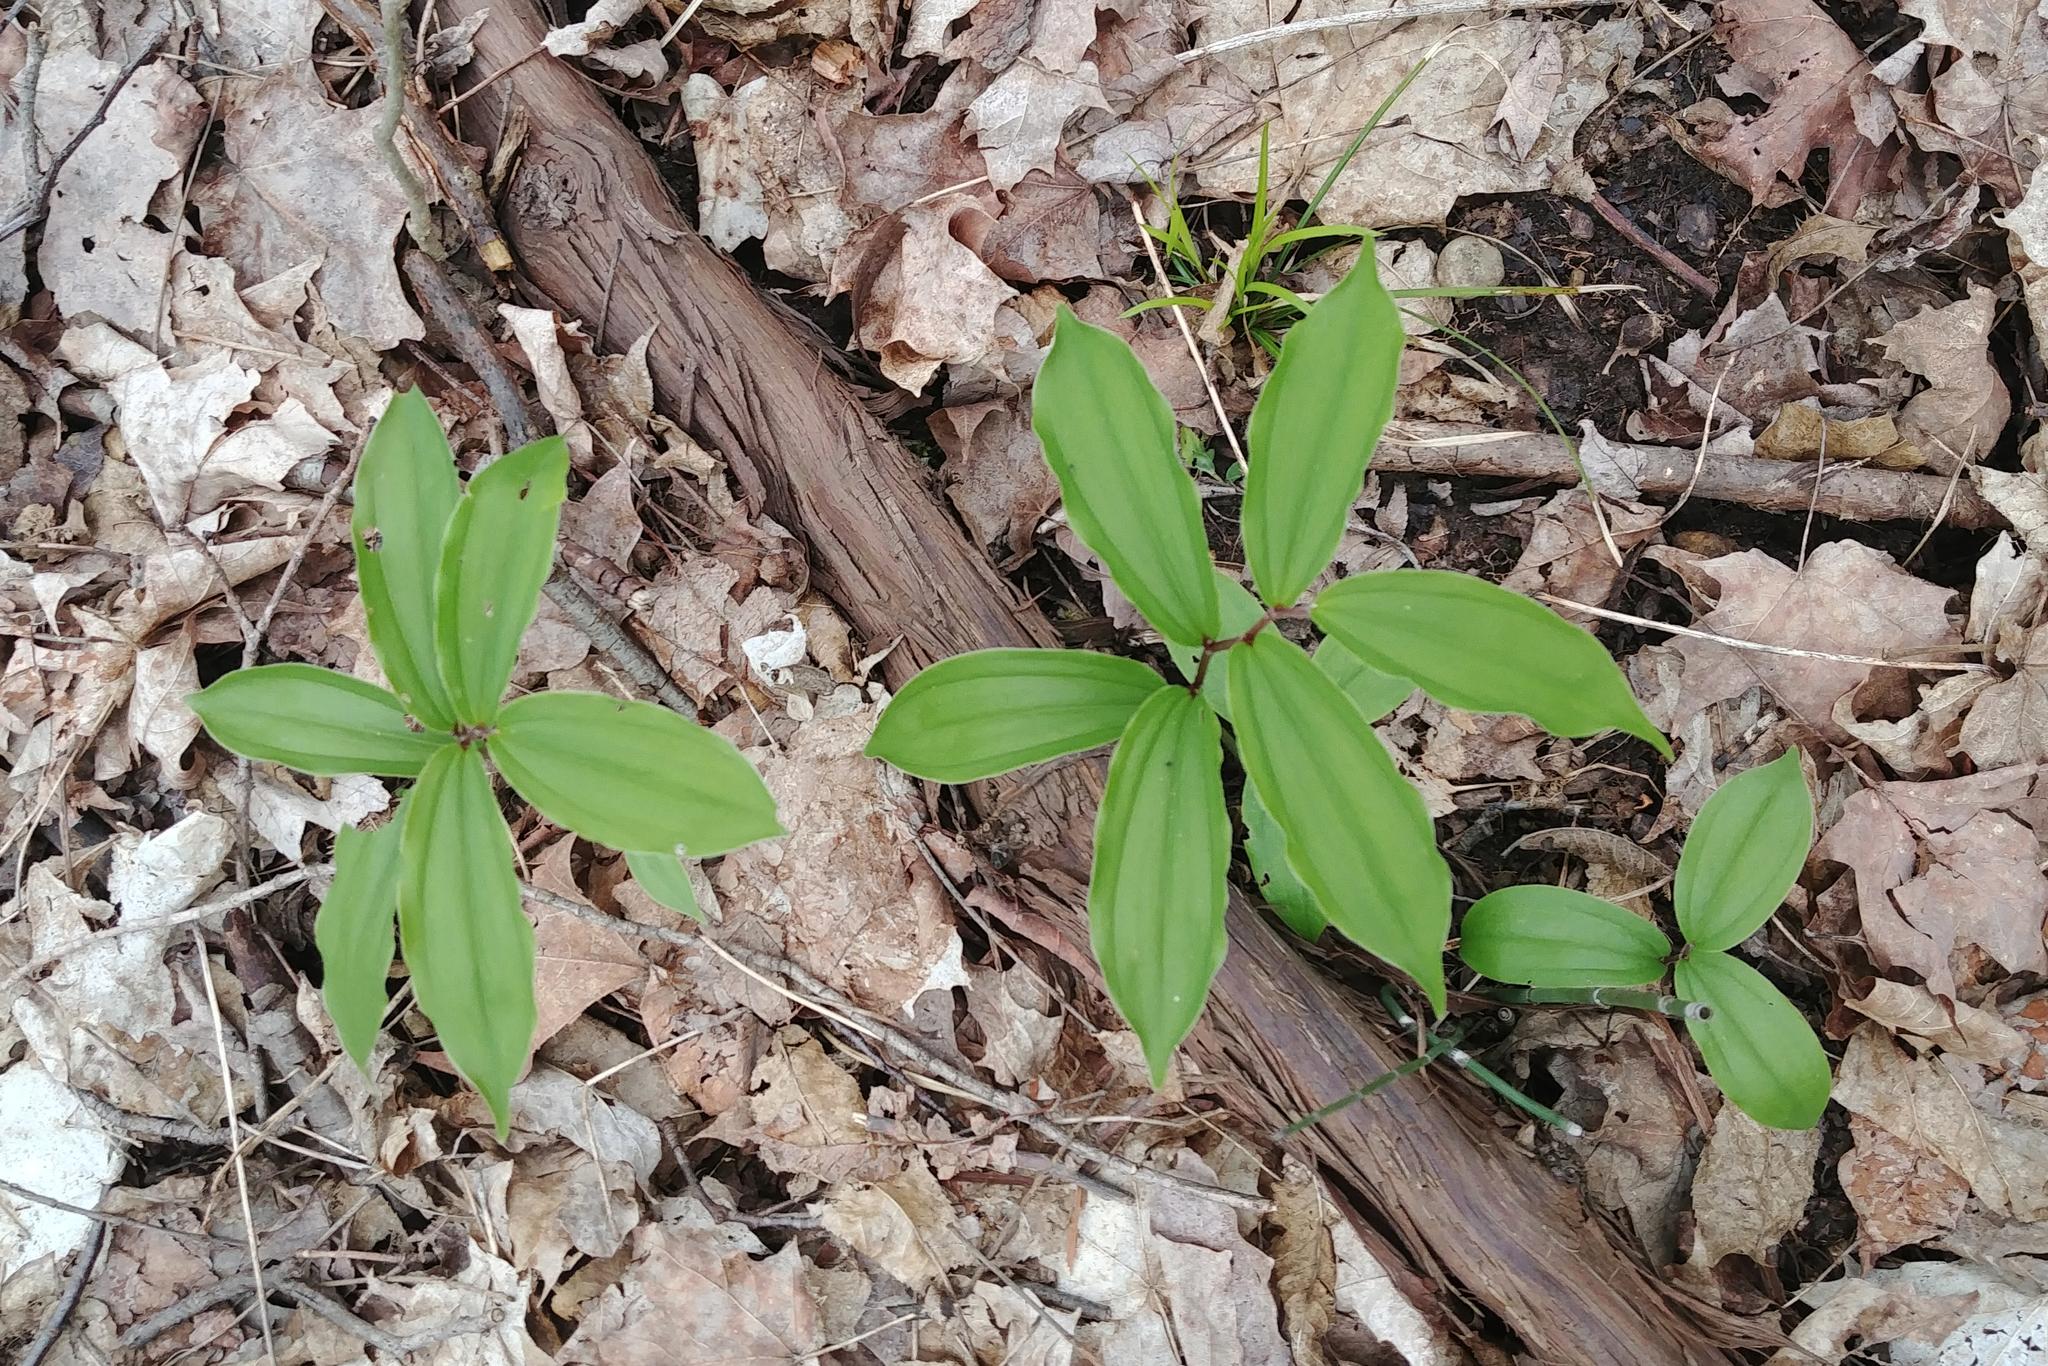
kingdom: Plantae
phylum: Tracheophyta
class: Liliopsida
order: Asparagales
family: Asparagaceae
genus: Maianthemum
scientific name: Maianthemum racemosum
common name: False spikenard
